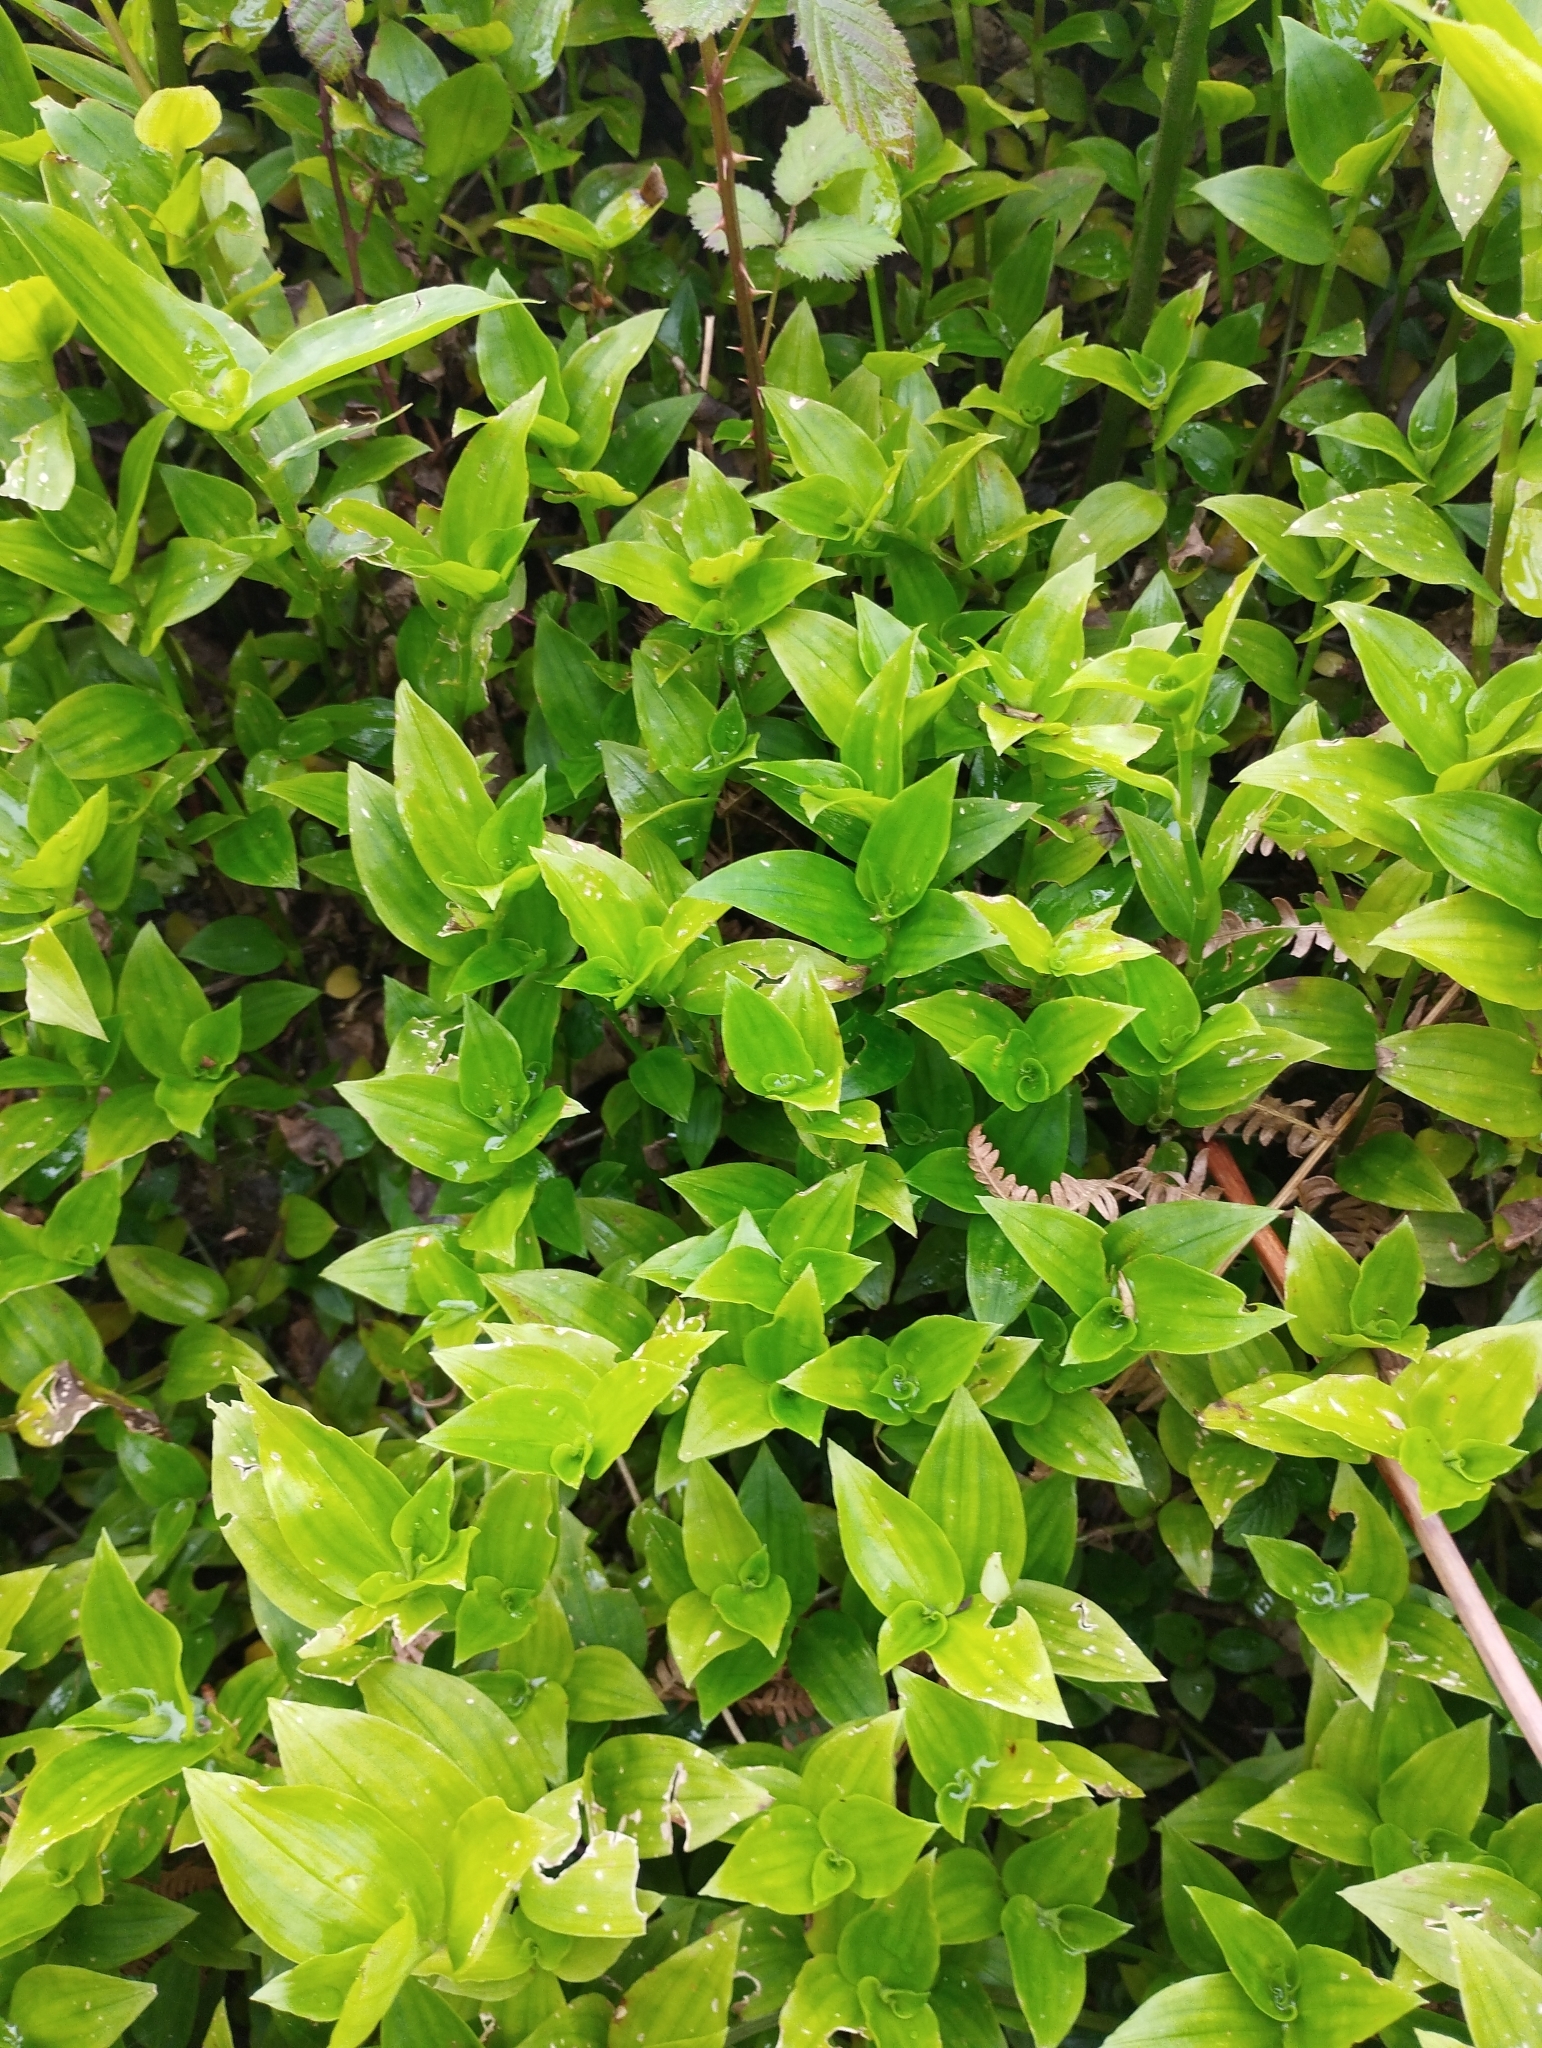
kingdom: Plantae
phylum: Tracheophyta
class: Liliopsida
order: Commelinales
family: Commelinaceae
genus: Tradescantia
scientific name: Tradescantia fluminensis
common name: Wandering-jew
